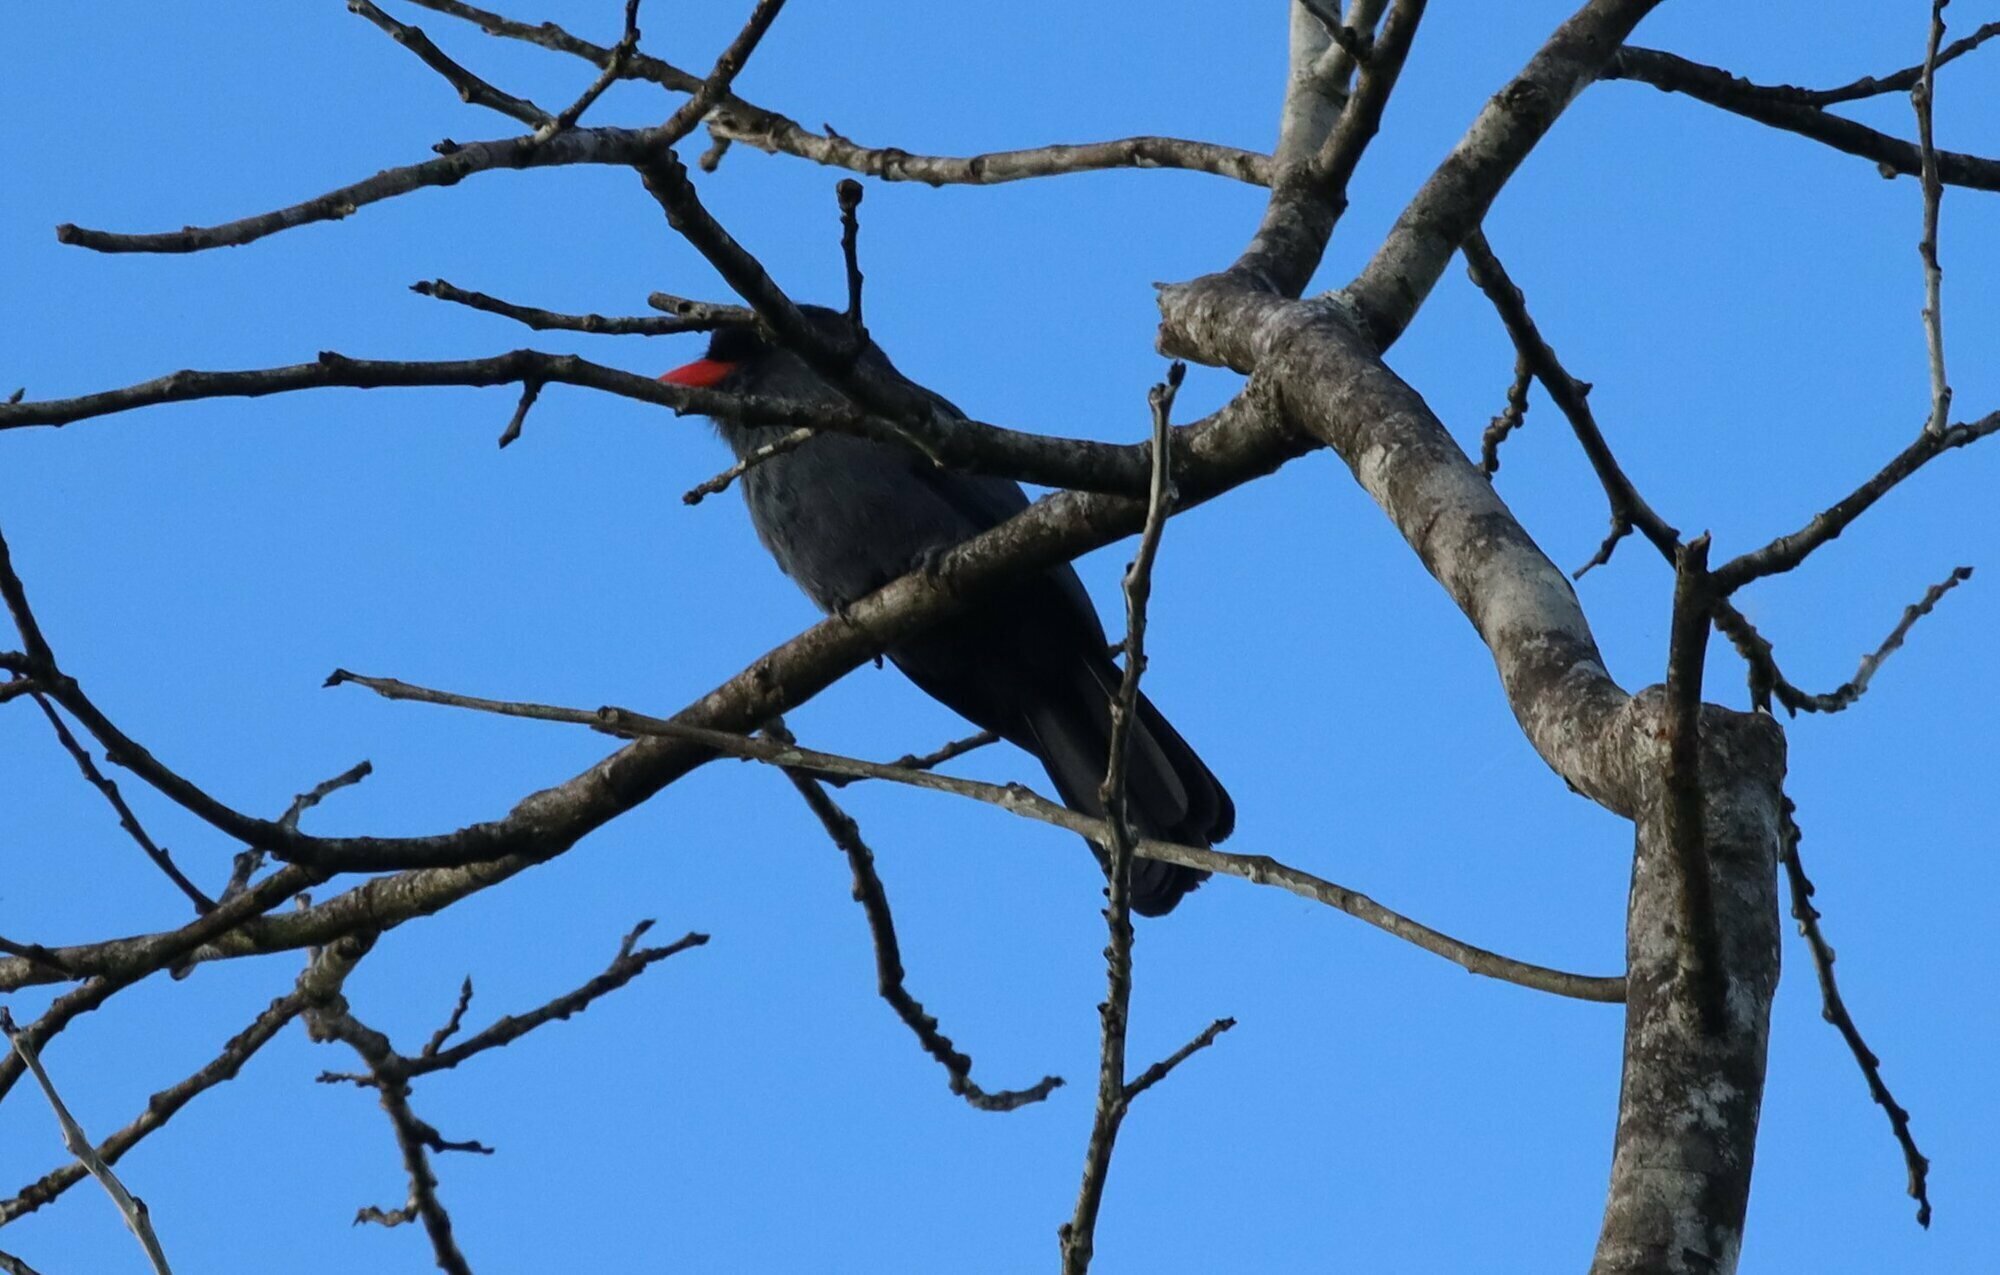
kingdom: Animalia
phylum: Chordata
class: Aves
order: Piciformes
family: Bucconidae
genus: Monasa
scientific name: Monasa nigrifrons
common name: Black-fronted nunbird
